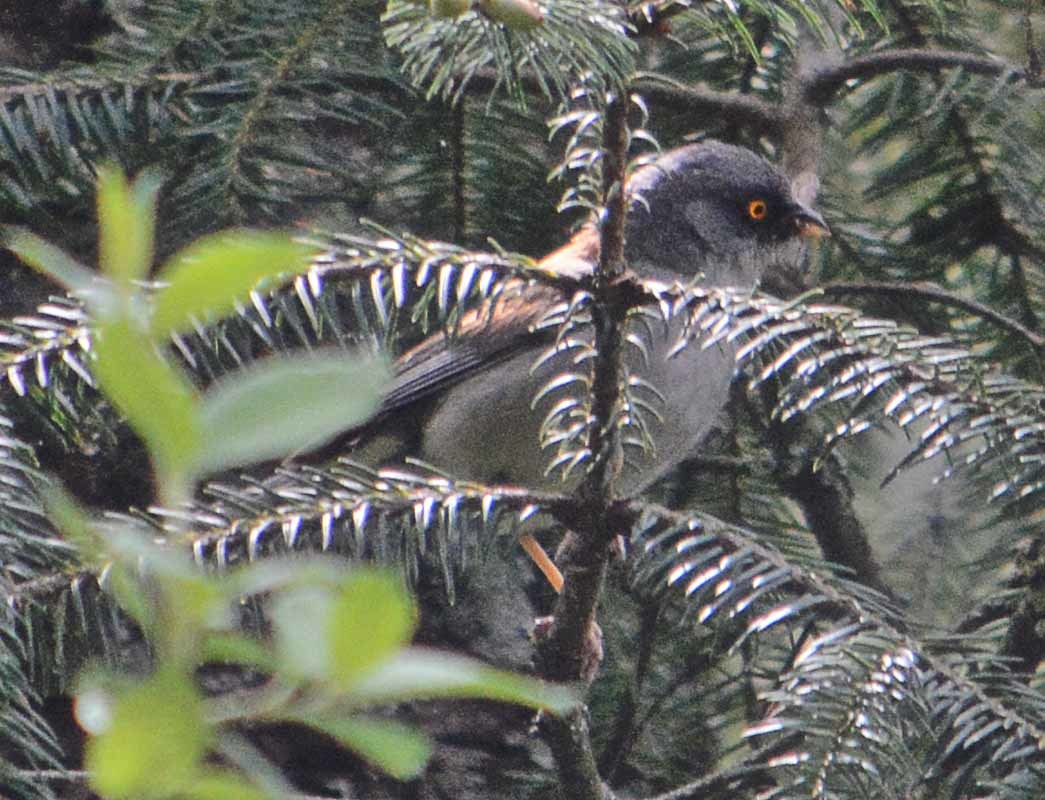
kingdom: Animalia
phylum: Chordata
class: Aves
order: Passeriformes
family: Passerellidae
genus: Junco
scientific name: Junco phaeonotus
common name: Yellow-eyed junco
